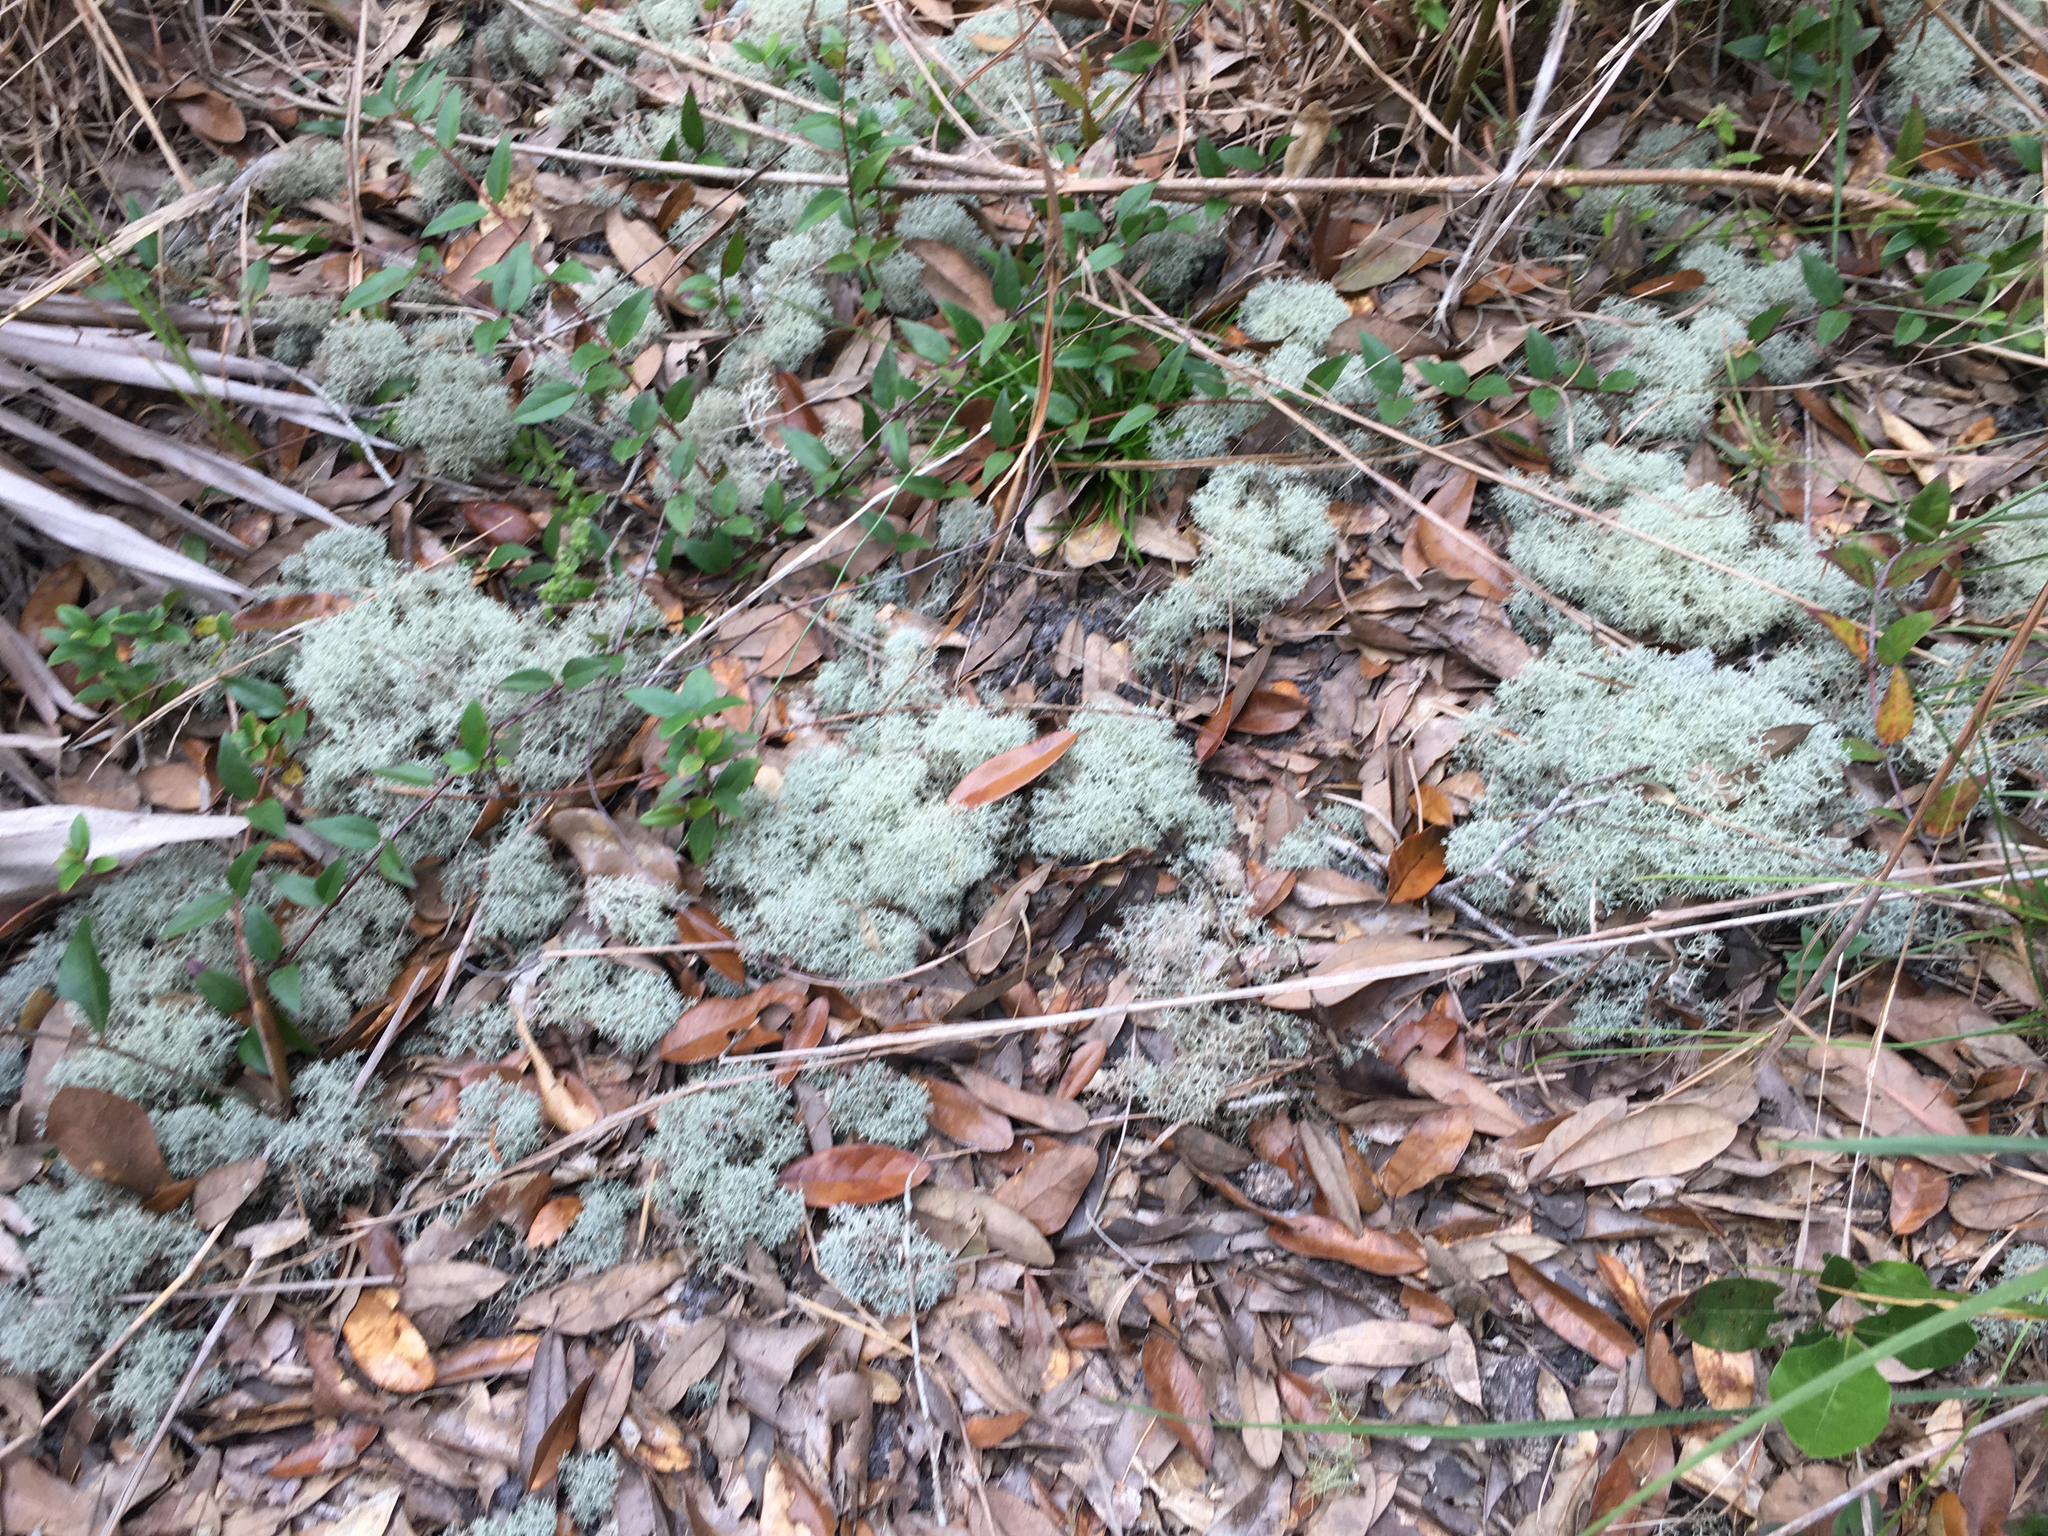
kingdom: Fungi
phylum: Ascomycota
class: Lecanoromycetes
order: Lecanorales
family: Cladoniaceae
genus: Cladonia
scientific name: Cladonia evansii
